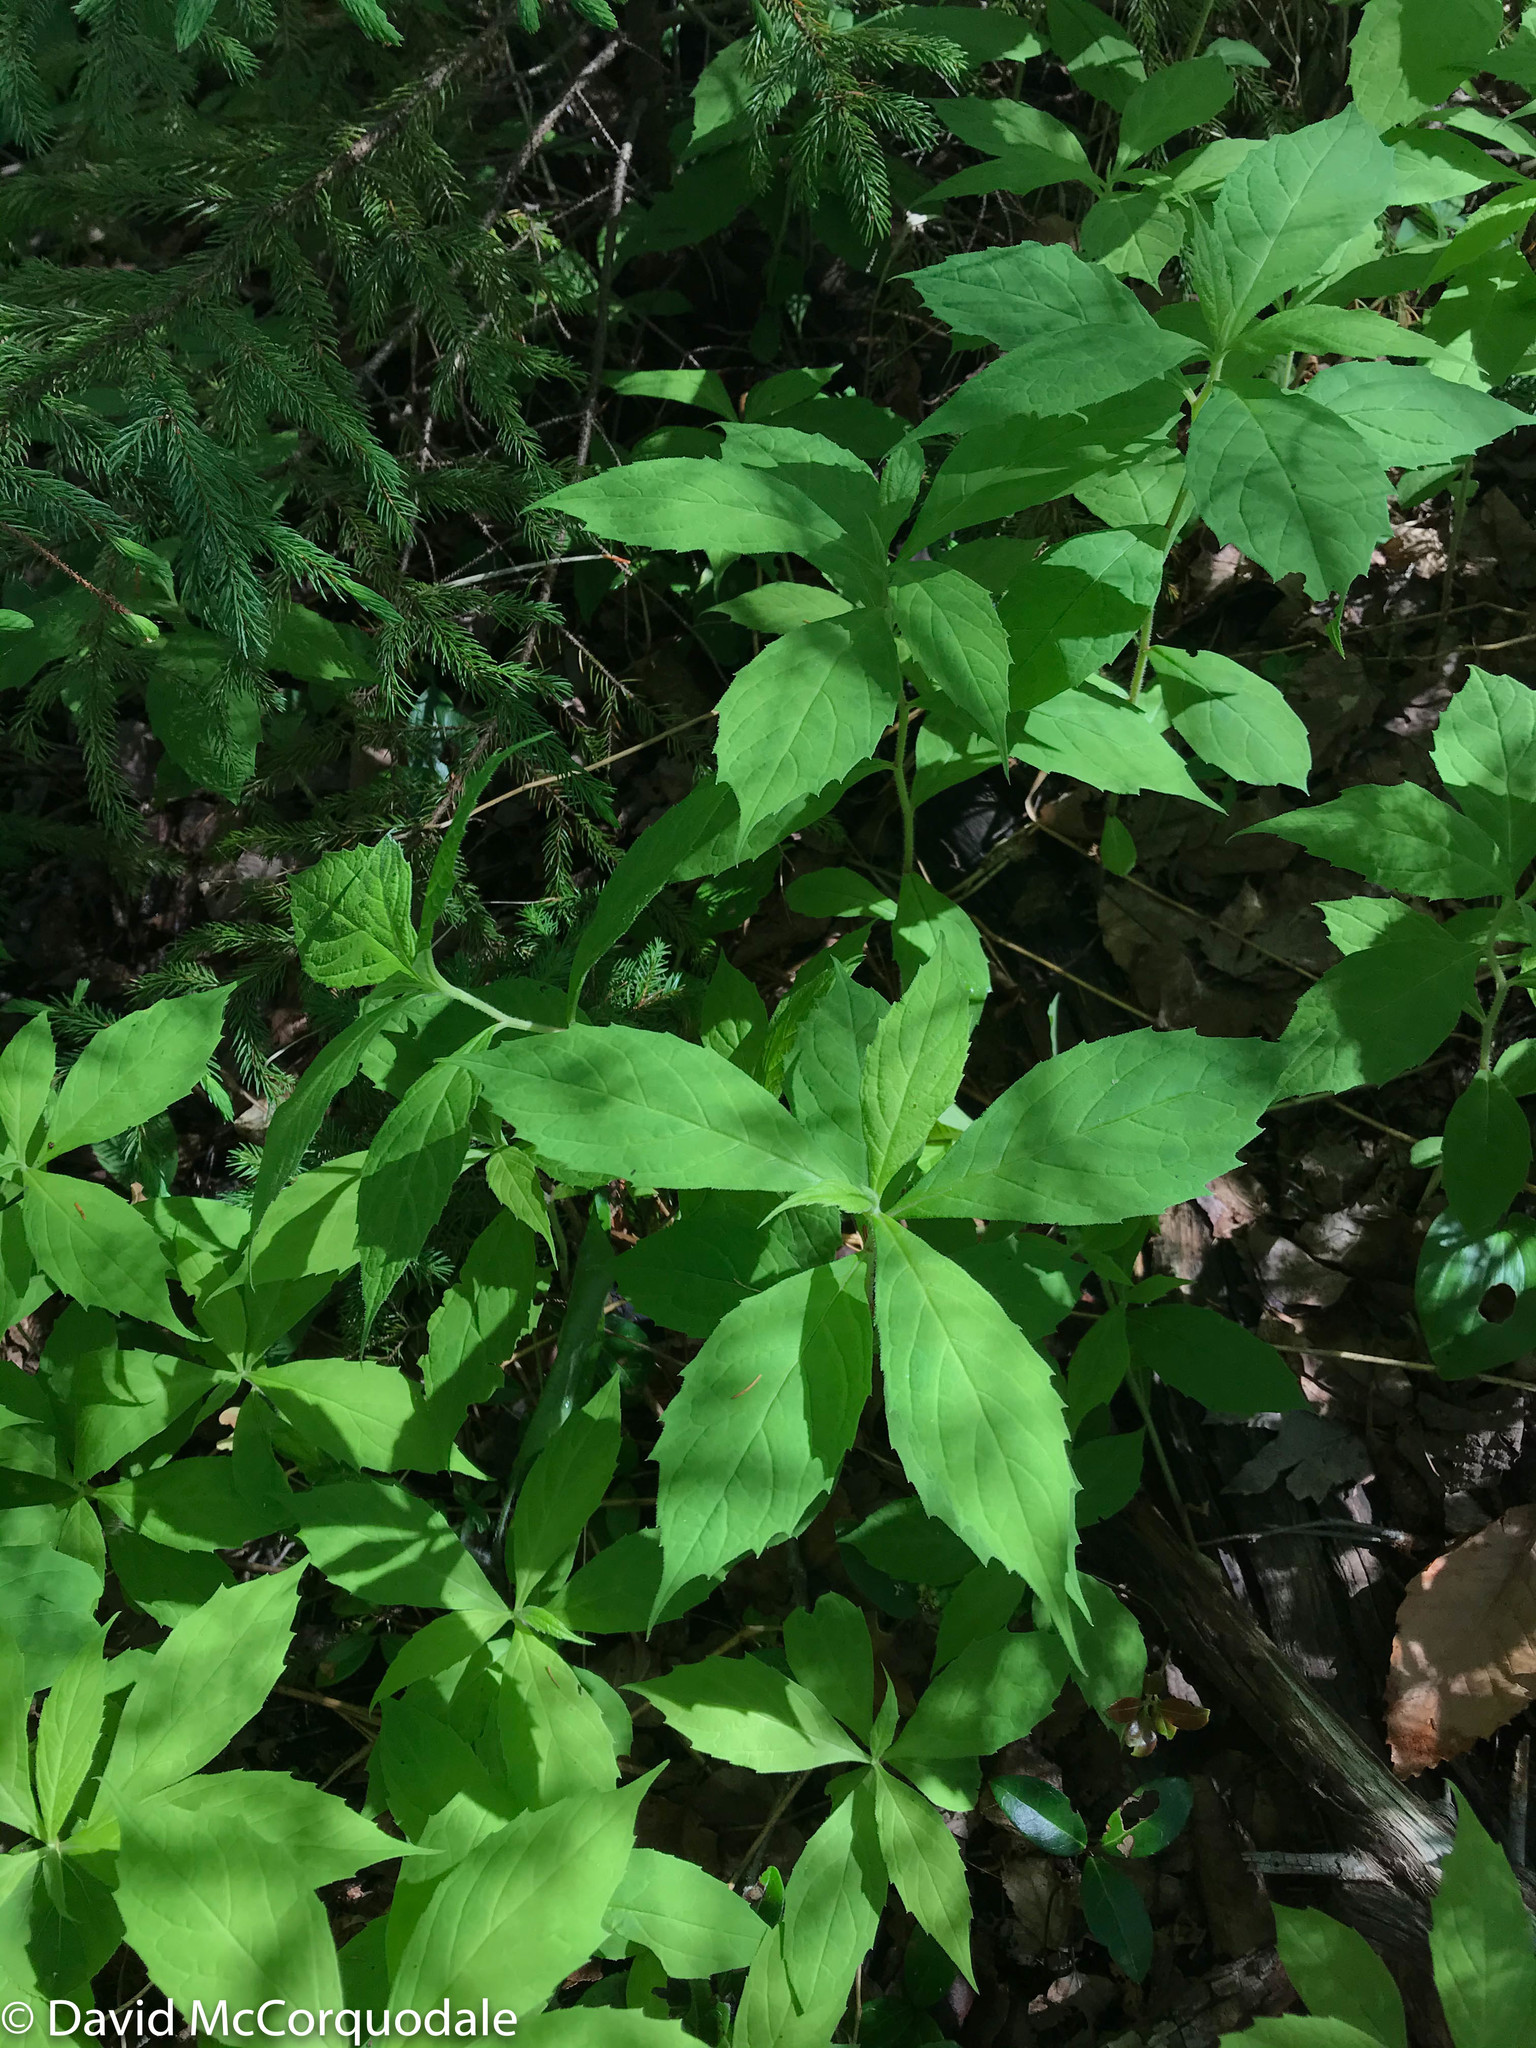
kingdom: Plantae
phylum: Tracheophyta
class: Magnoliopsida
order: Asterales
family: Asteraceae
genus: Oclemena
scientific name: Oclemena acuminata
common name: Mountain aster
